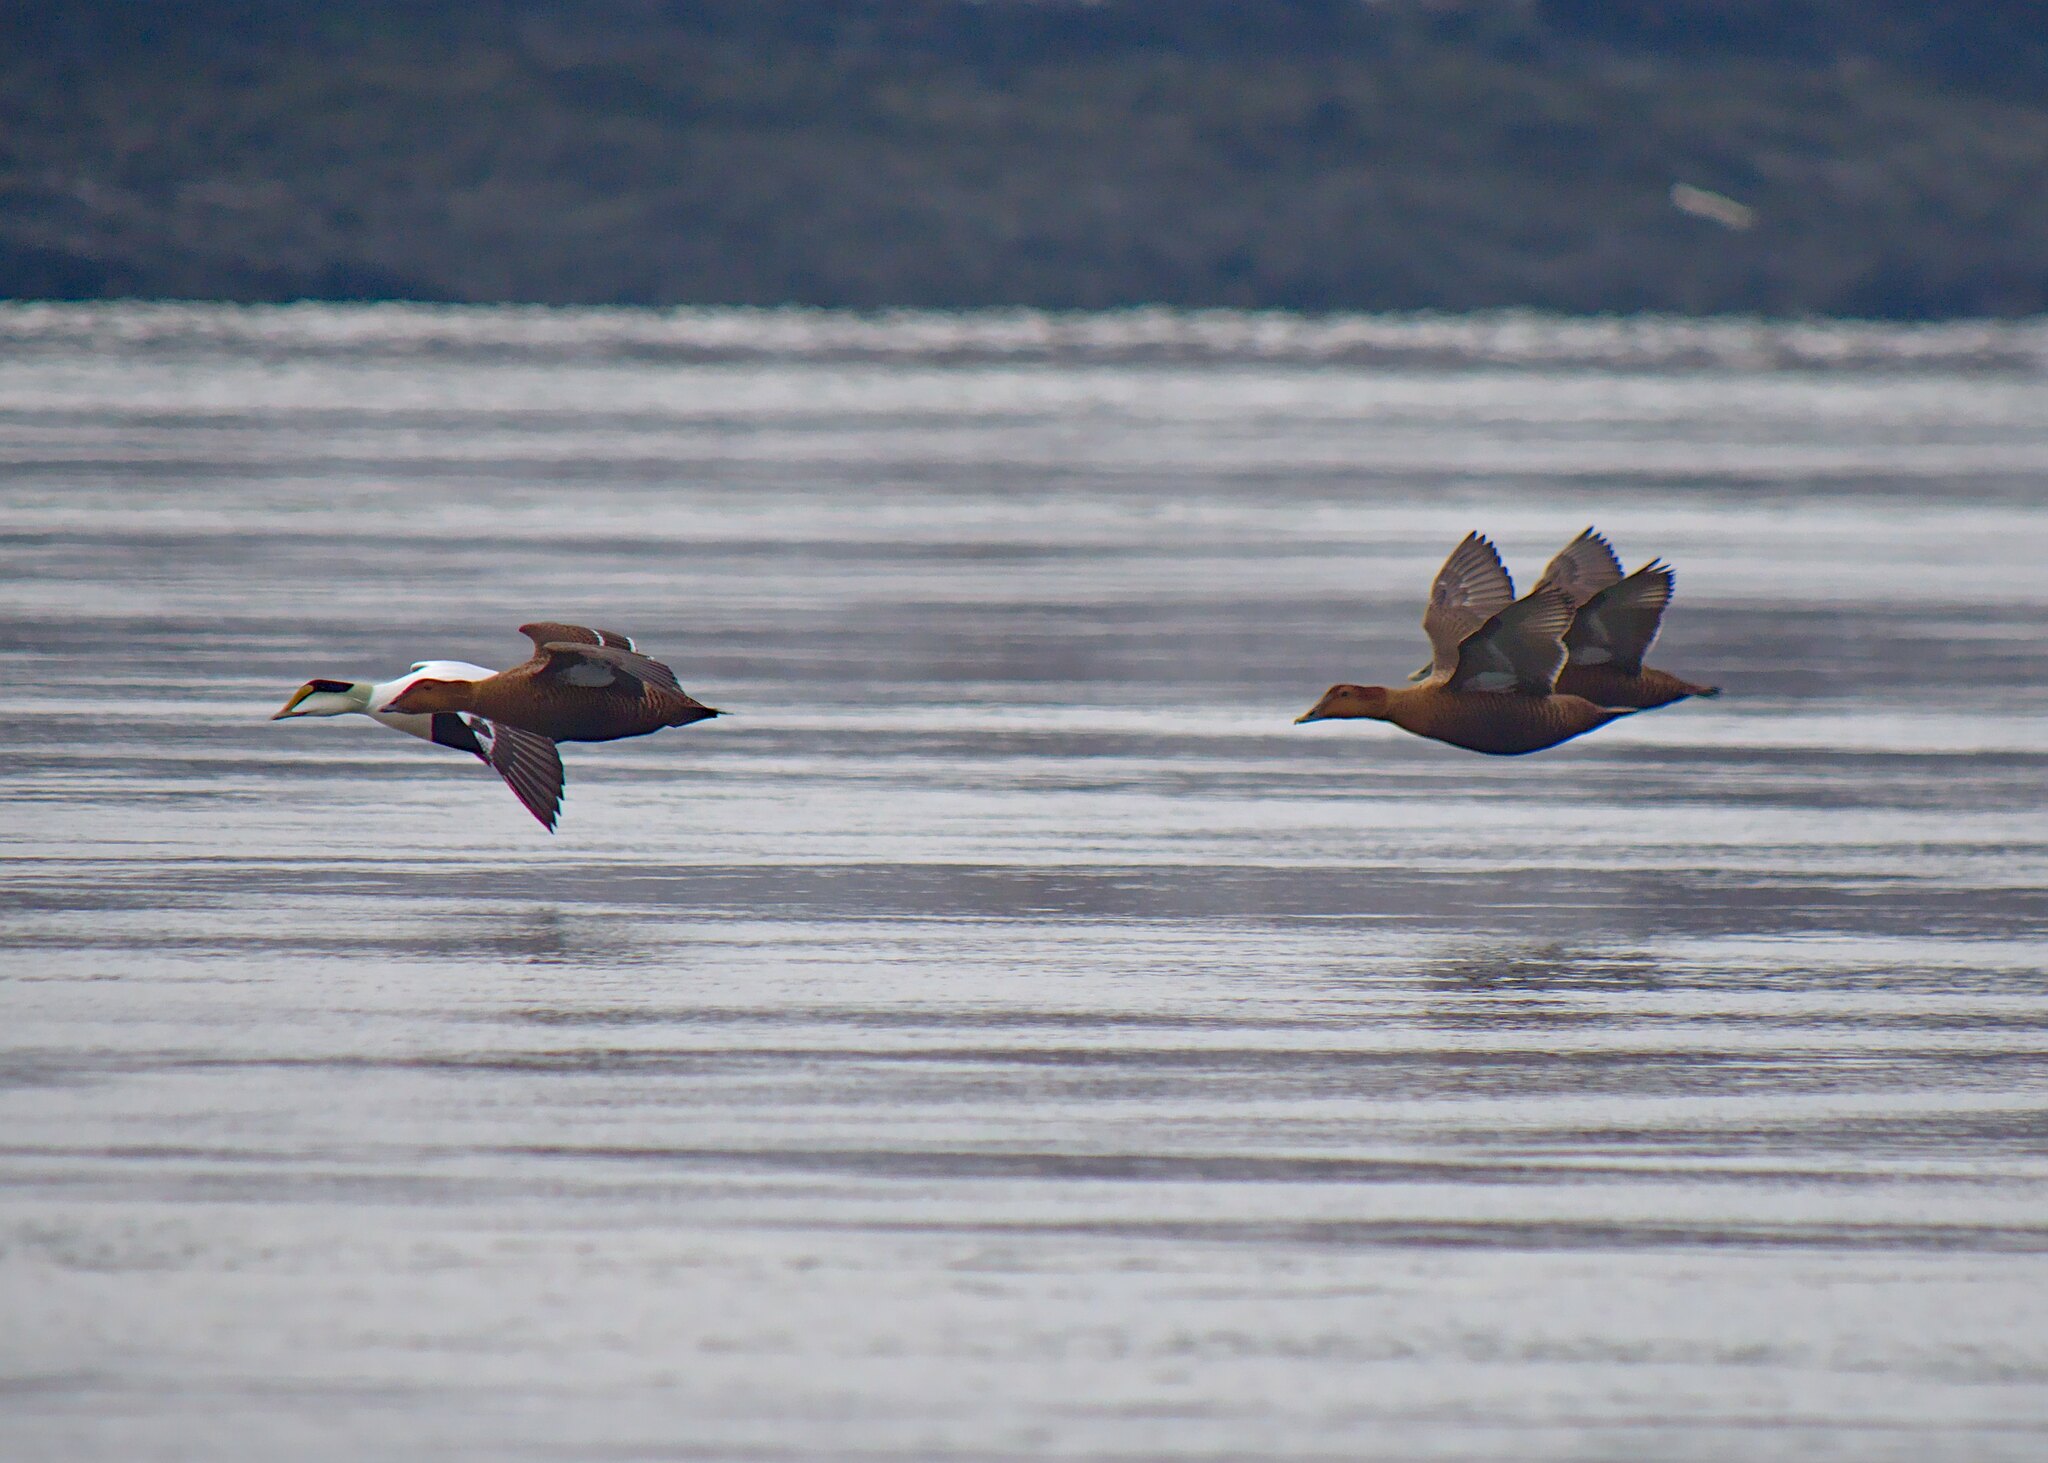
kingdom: Animalia
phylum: Chordata
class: Aves
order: Anseriformes
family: Anatidae
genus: Somateria
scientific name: Somateria mollissima
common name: Common eider
